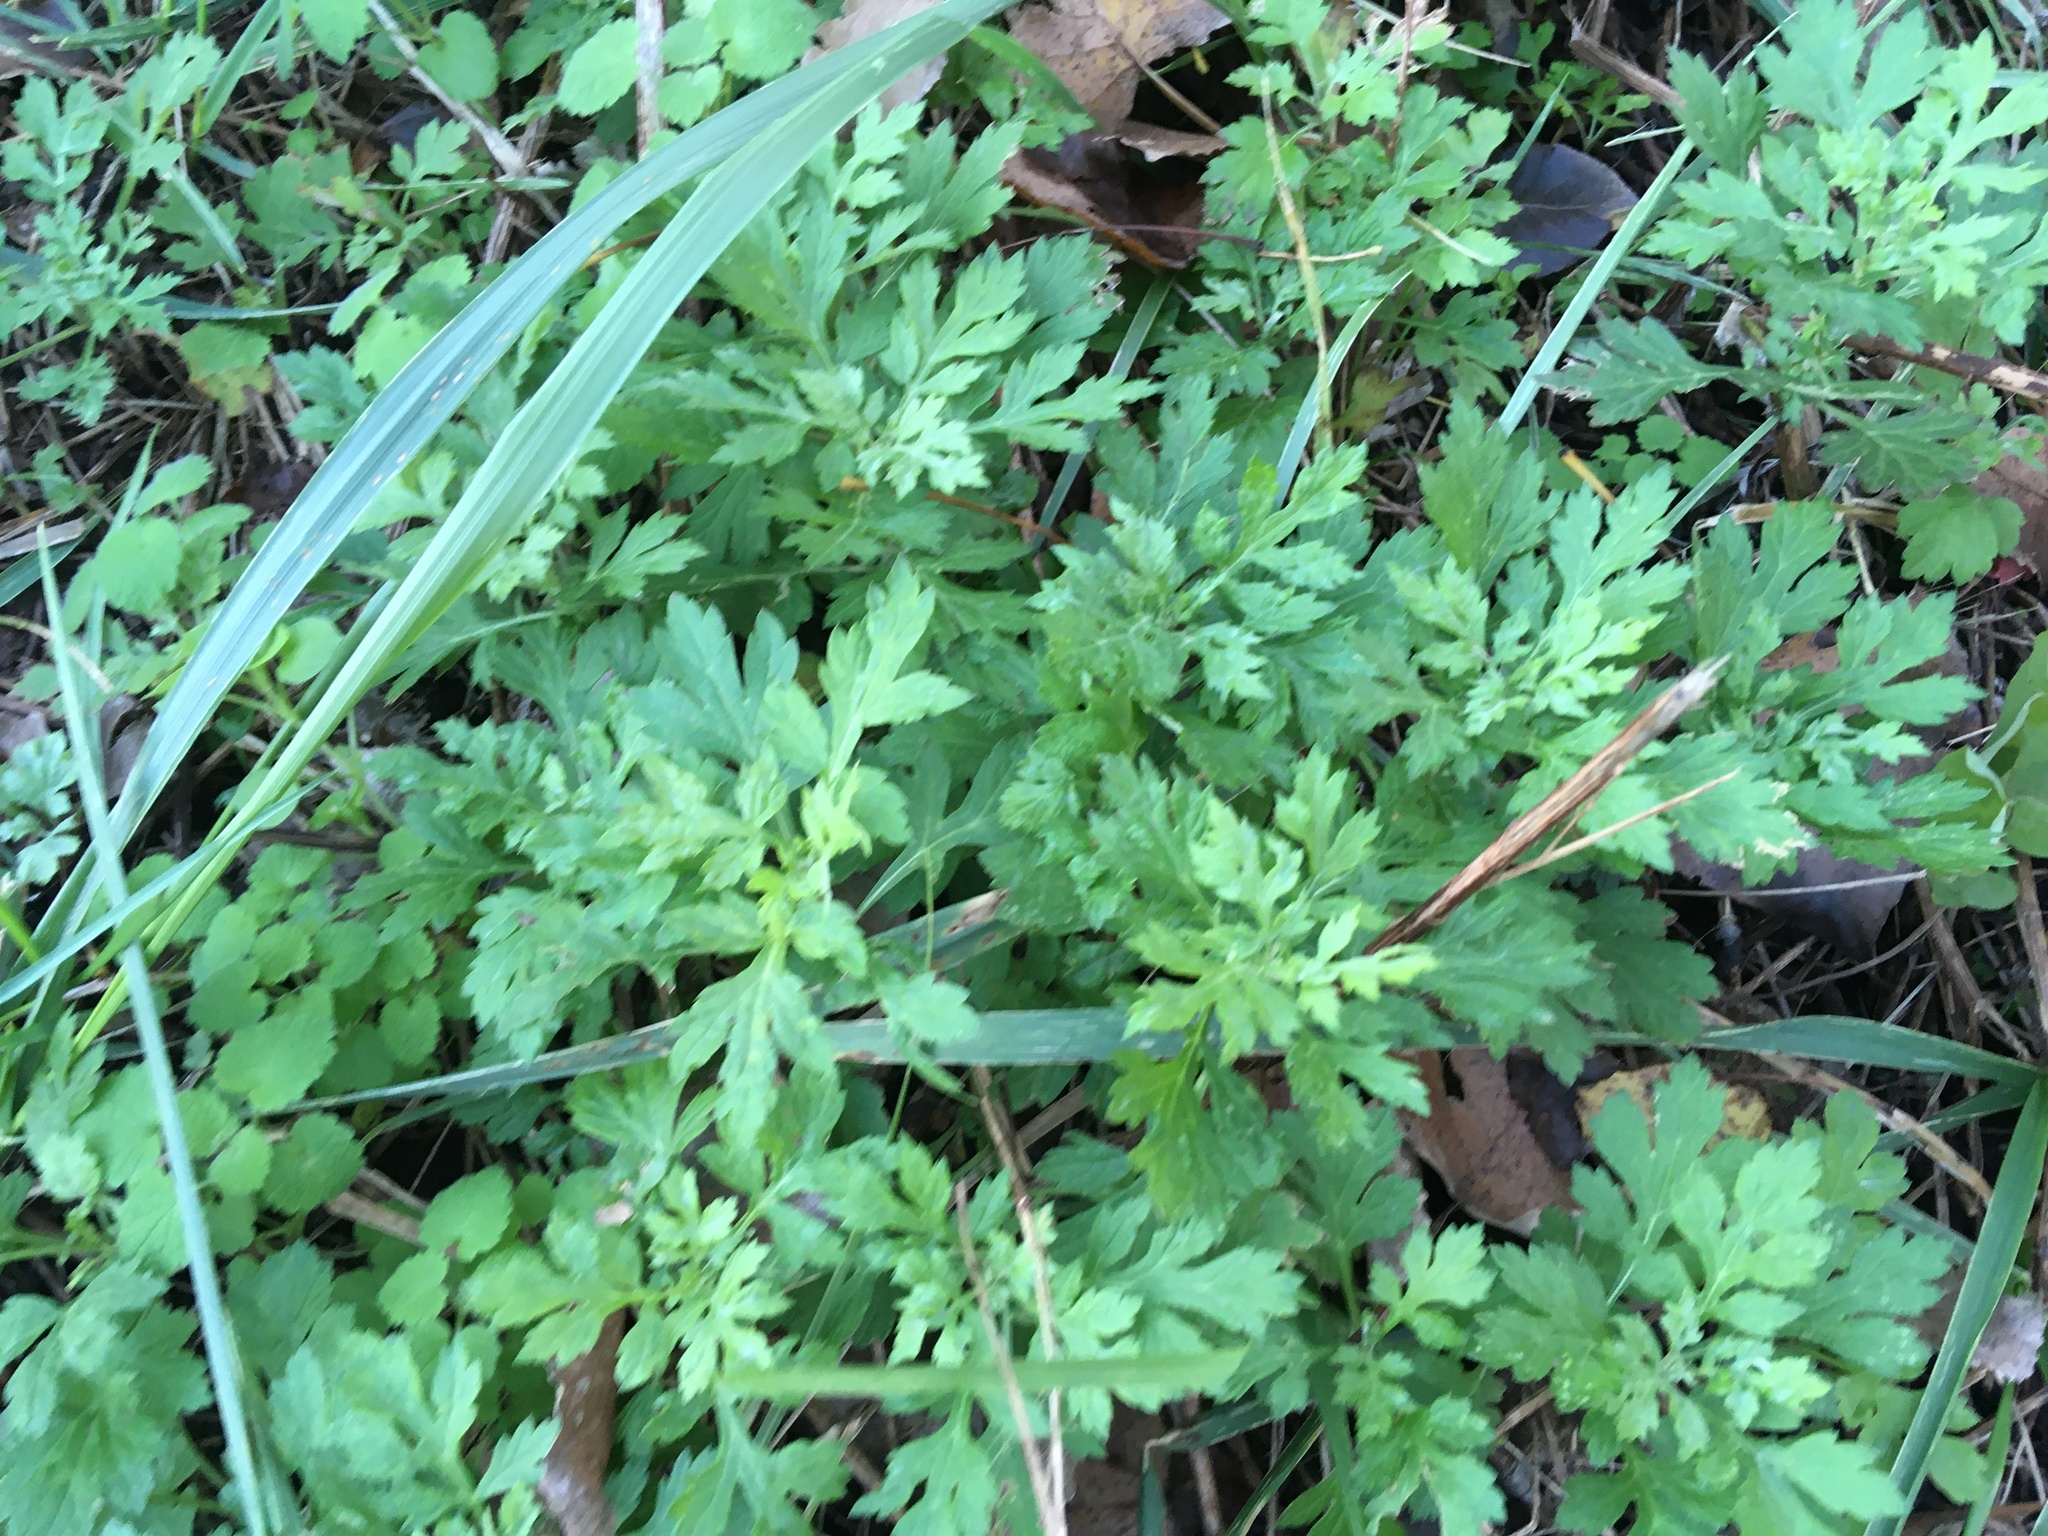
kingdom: Plantae
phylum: Tracheophyta
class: Magnoliopsida
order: Asterales
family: Asteraceae
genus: Artemisia
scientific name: Artemisia vulgaris
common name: Mugwort
